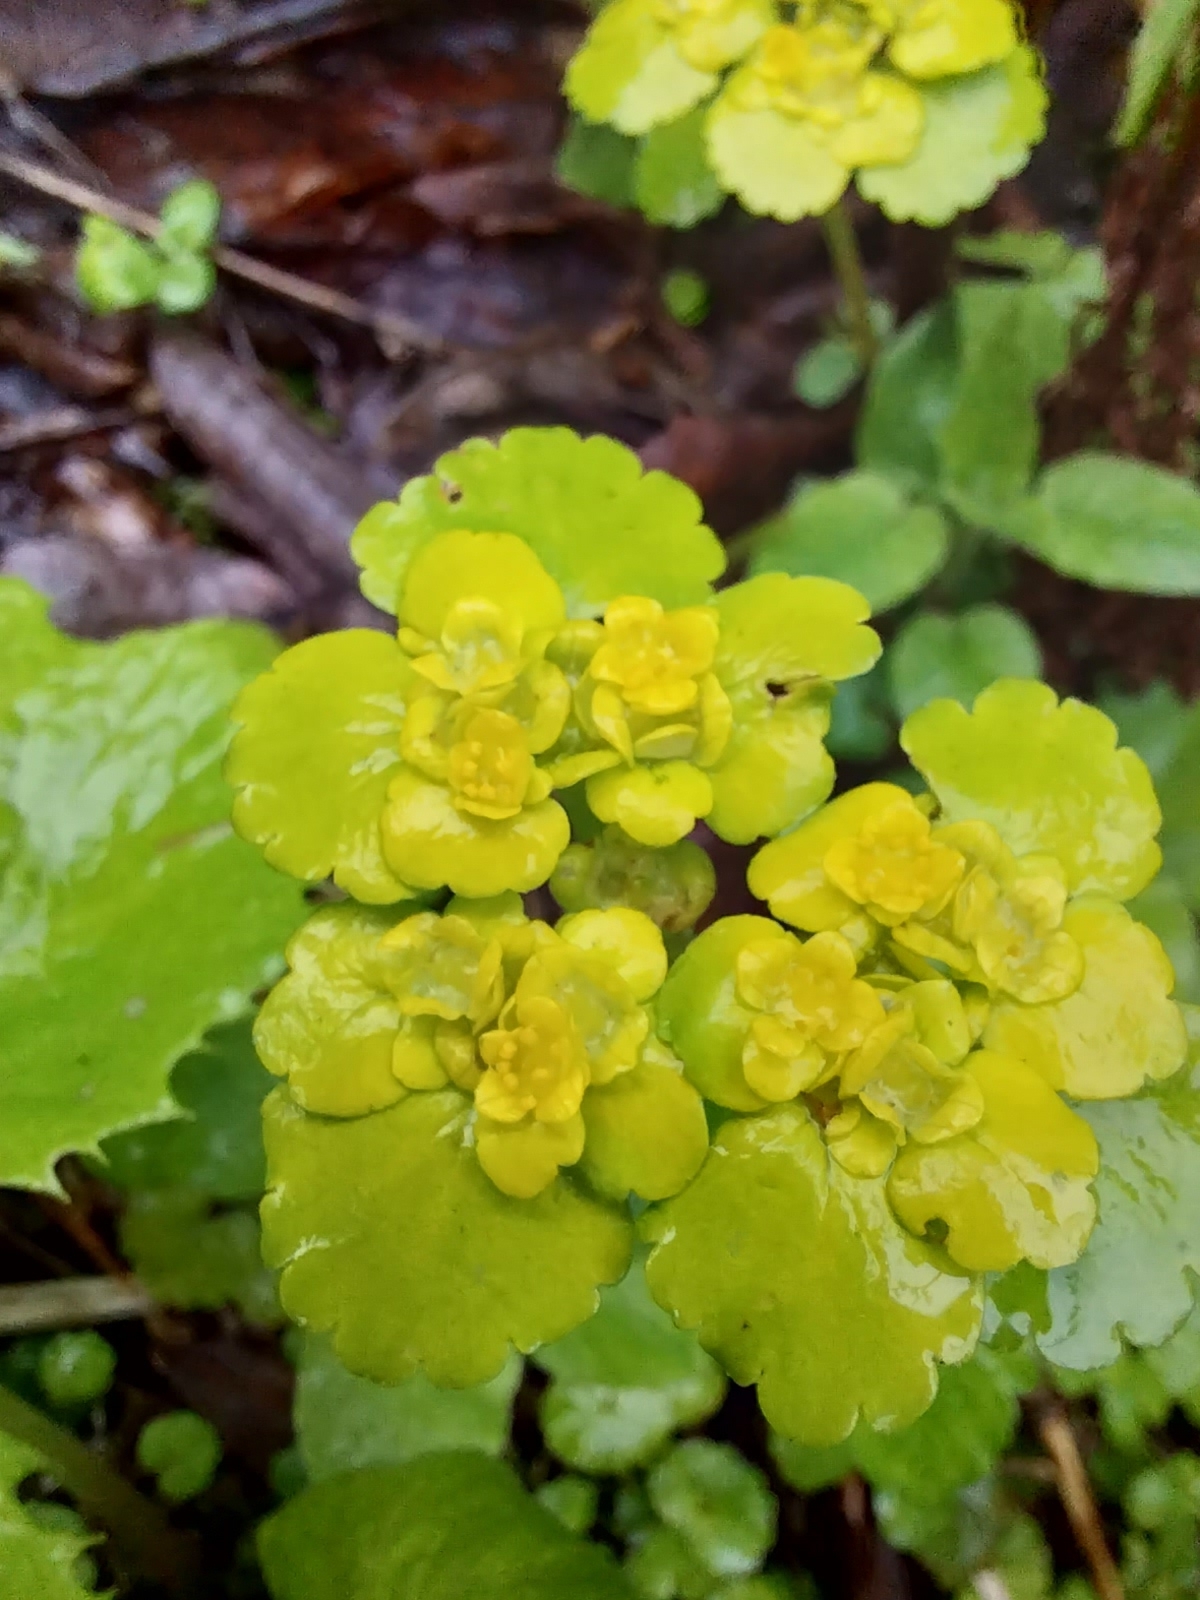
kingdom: Plantae
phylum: Tracheophyta
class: Magnoliopsida
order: Saxifragales
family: Saxifragaceae
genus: Chrysosplenium
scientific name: Chrysosplenium alternifolium
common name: Alternate-leaved golden-saxifrage
